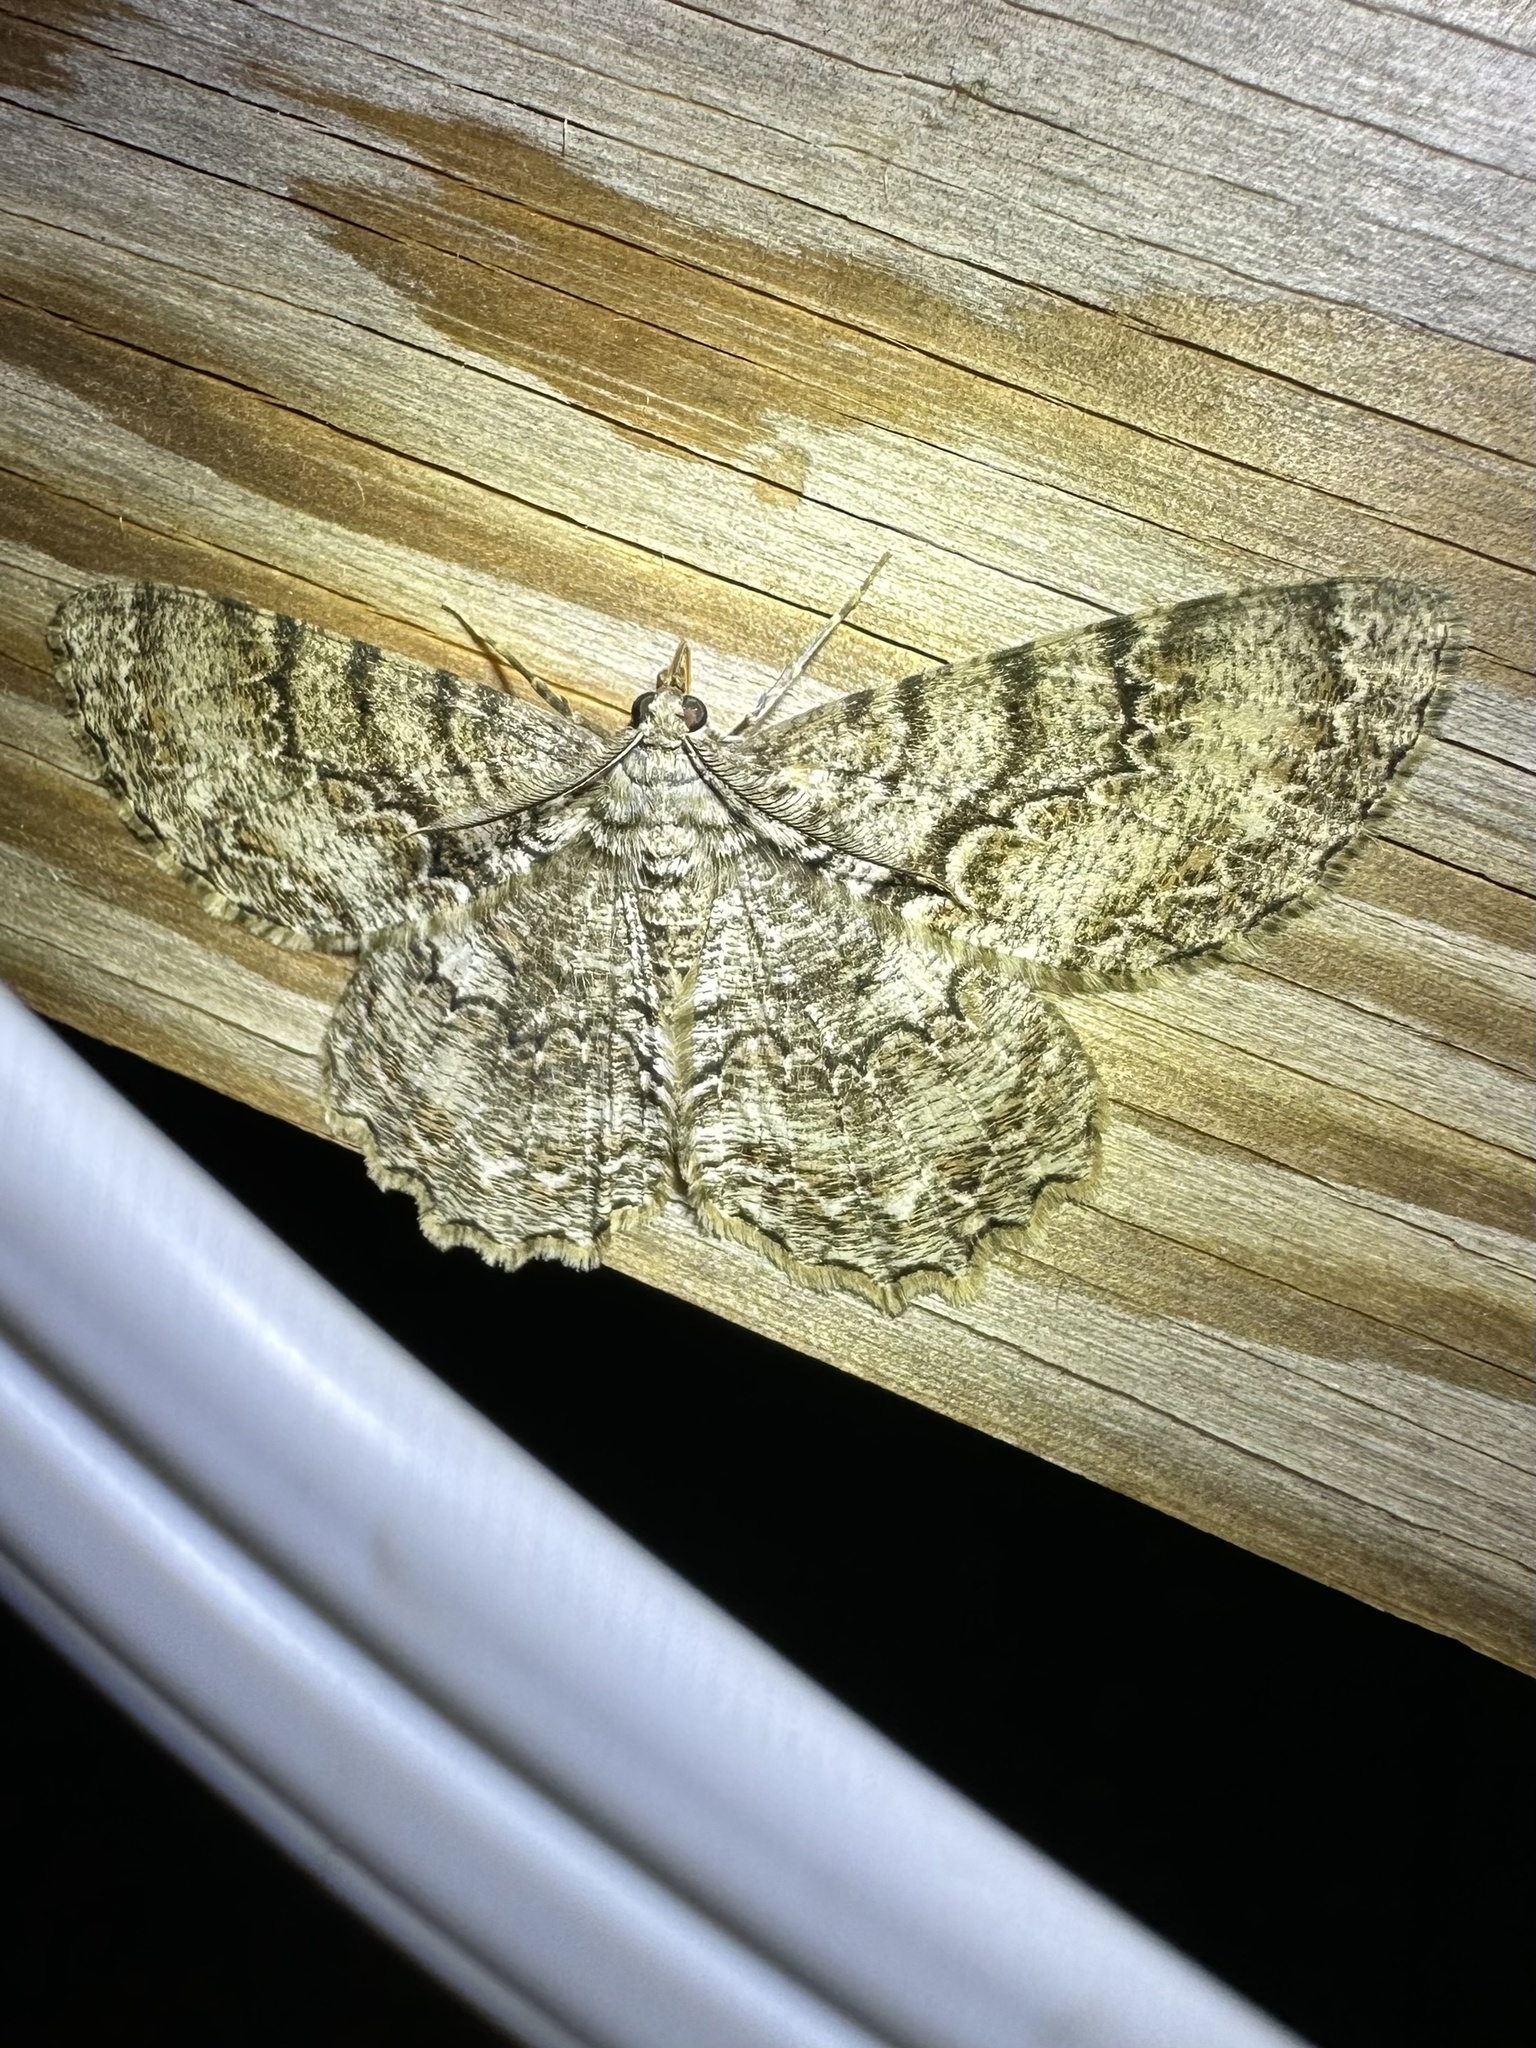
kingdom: Animalia
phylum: Arthropoda
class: Insecta
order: Lepidoptera
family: Geometridae
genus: Epimecis
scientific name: Epimecis hortaria
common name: Tulip-tree beauty
